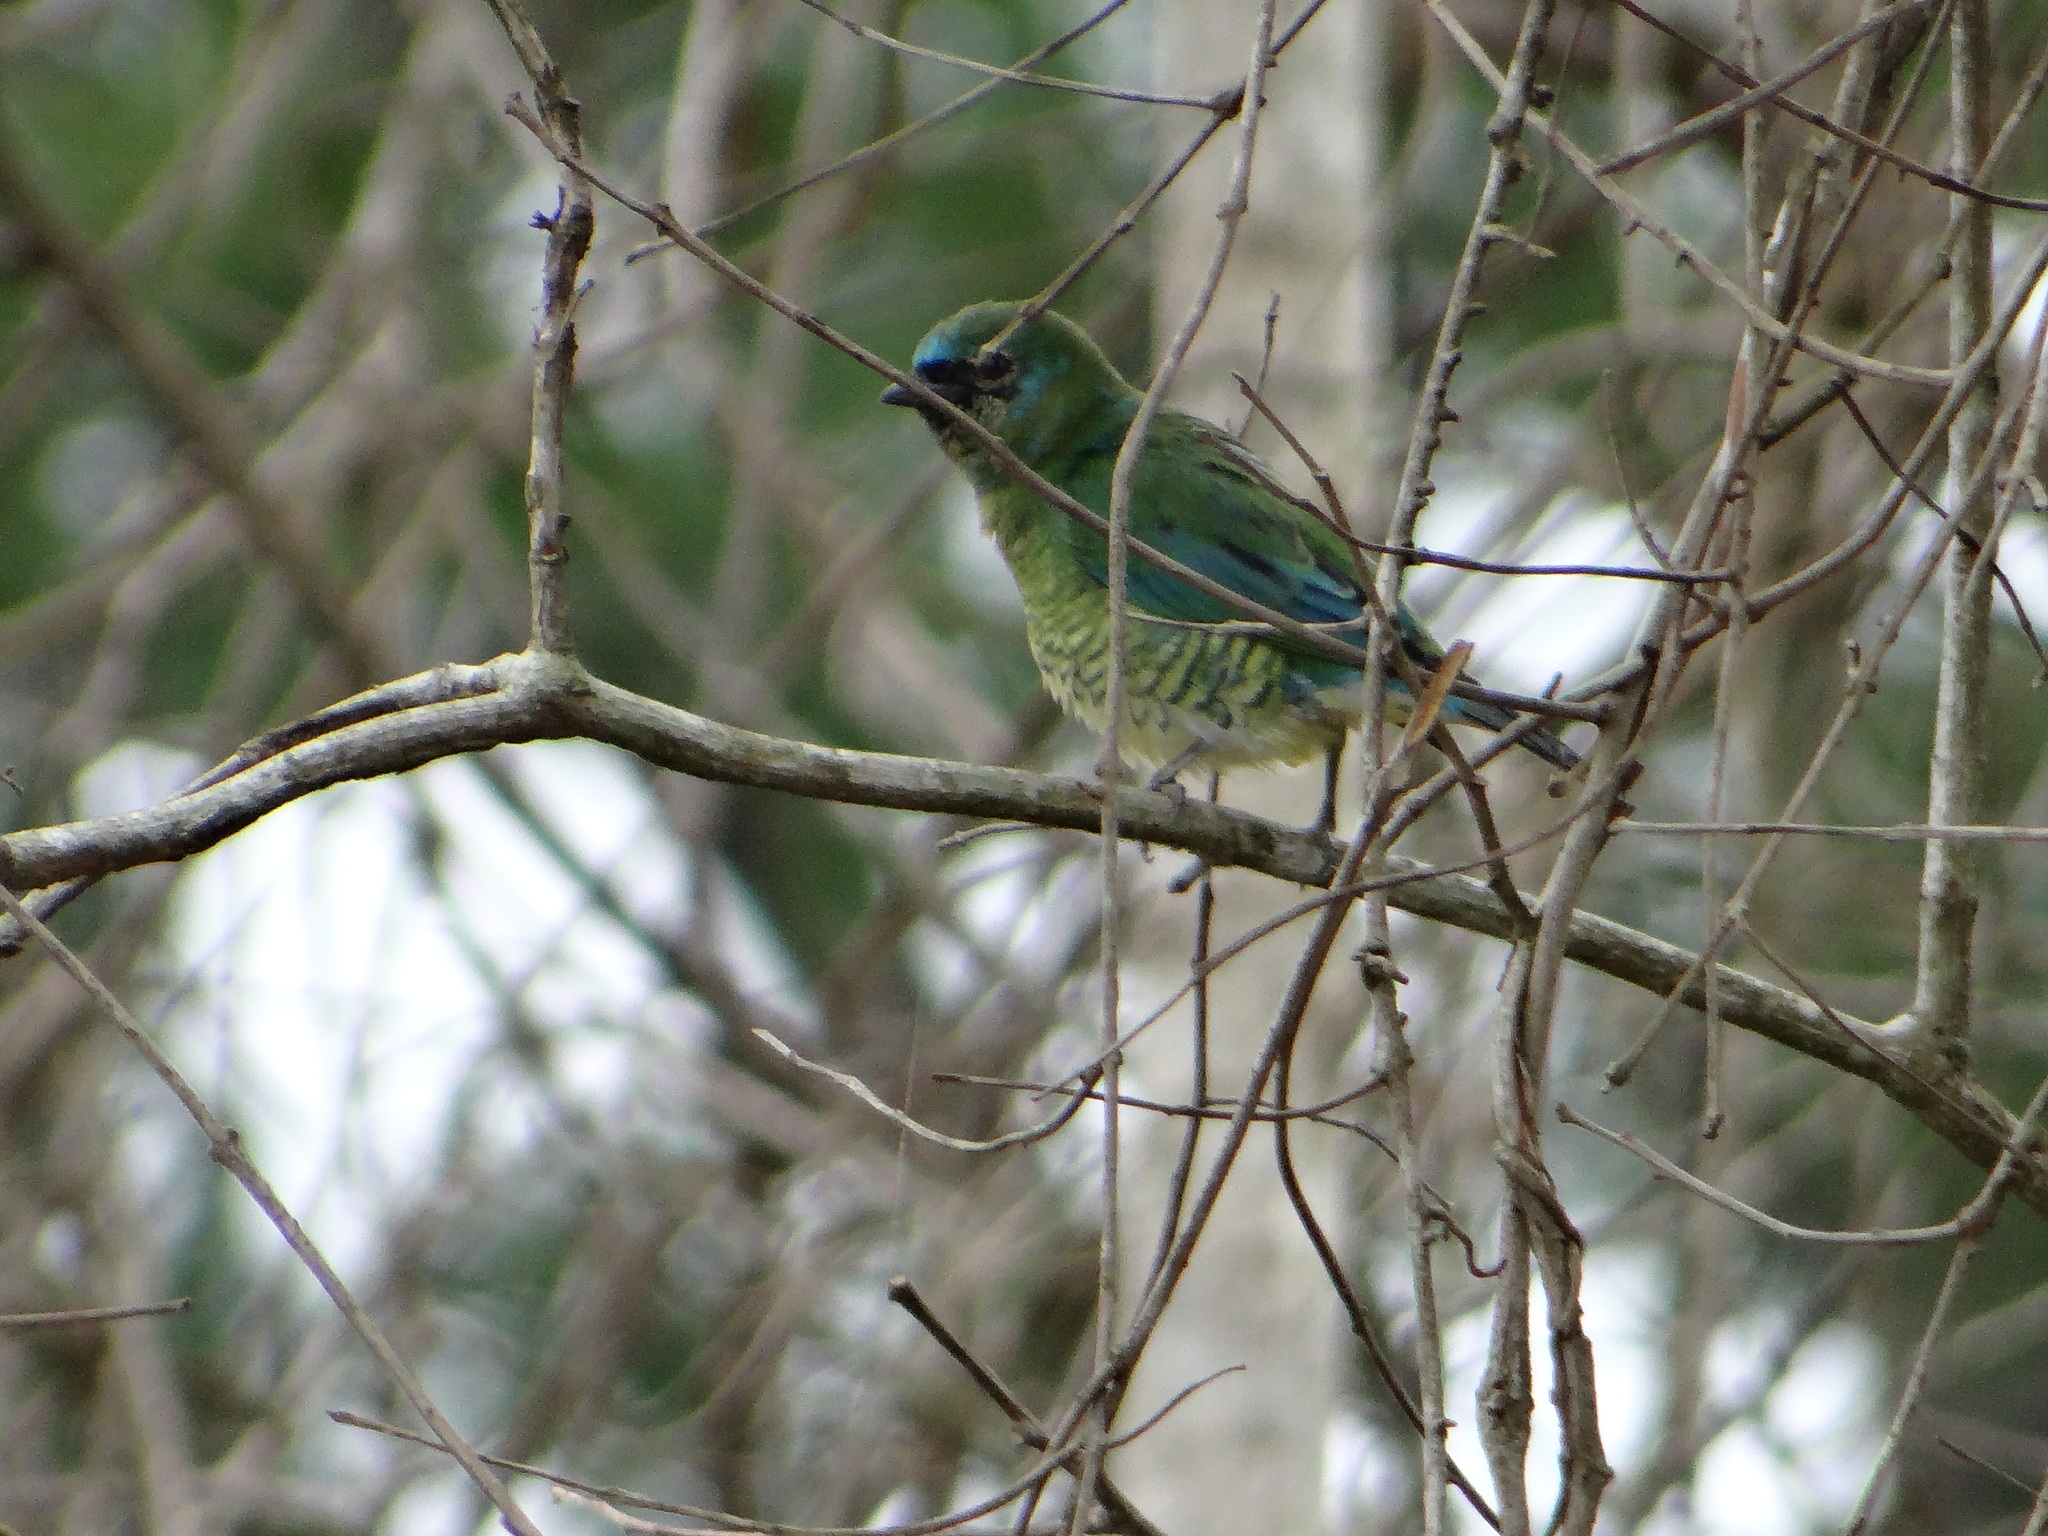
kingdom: Animalia
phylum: Chordata
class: Aves
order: Passeriformes
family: Thraupidae
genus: Tersina
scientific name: Tersina viridis
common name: Swallow tanager
